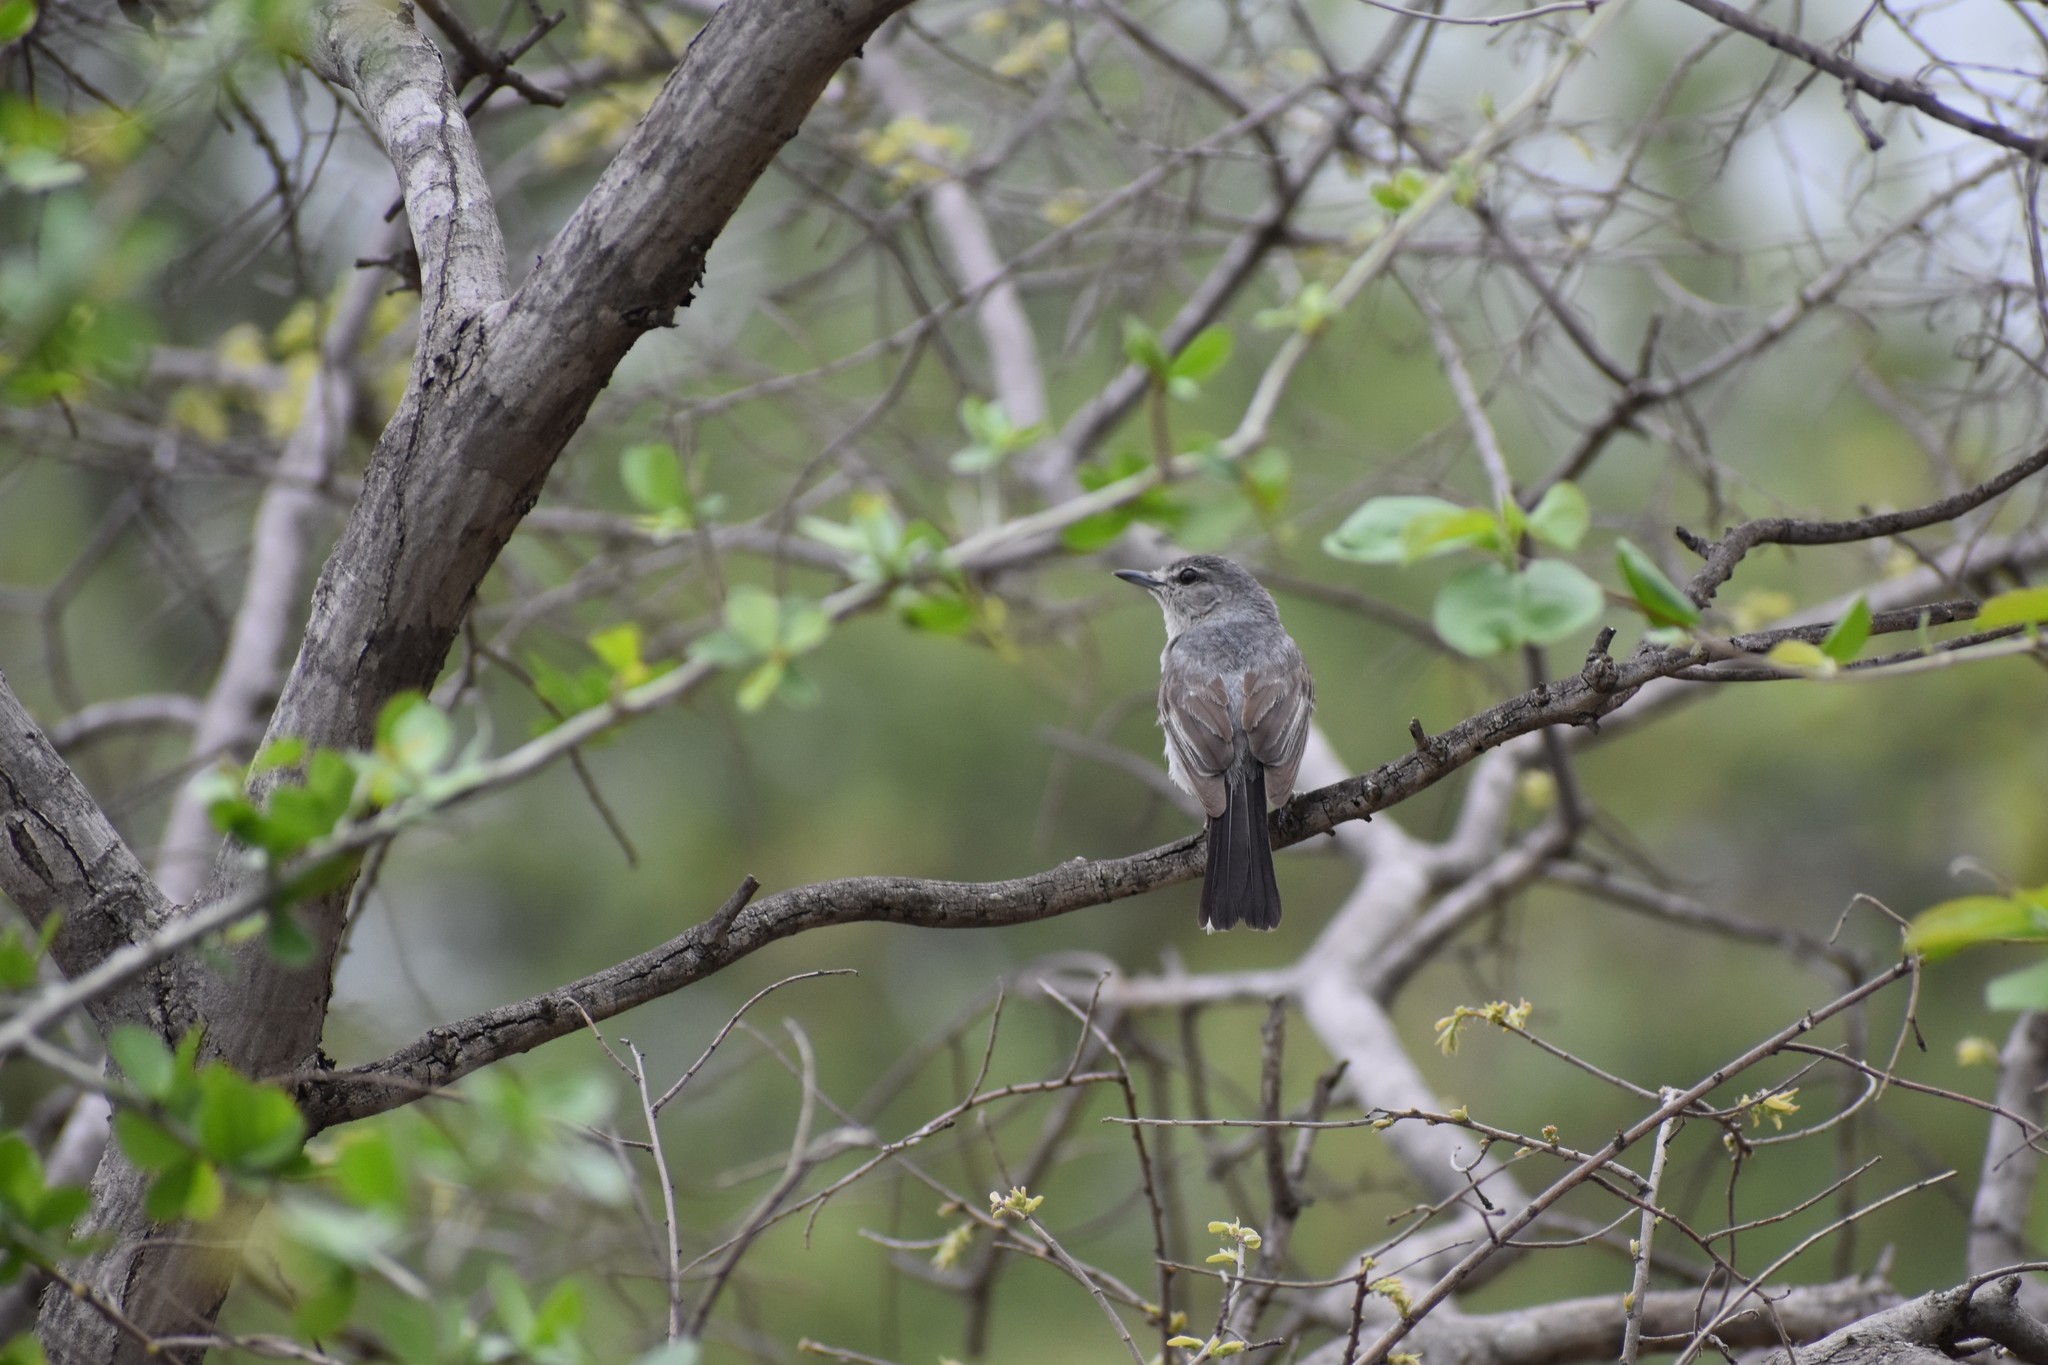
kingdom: Animalia
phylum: Chordata
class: Aves
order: Passeriformes
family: Muscicapidae
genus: Myioparus
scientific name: Myioparus plumbeus
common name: Grey tit-flycatcher
